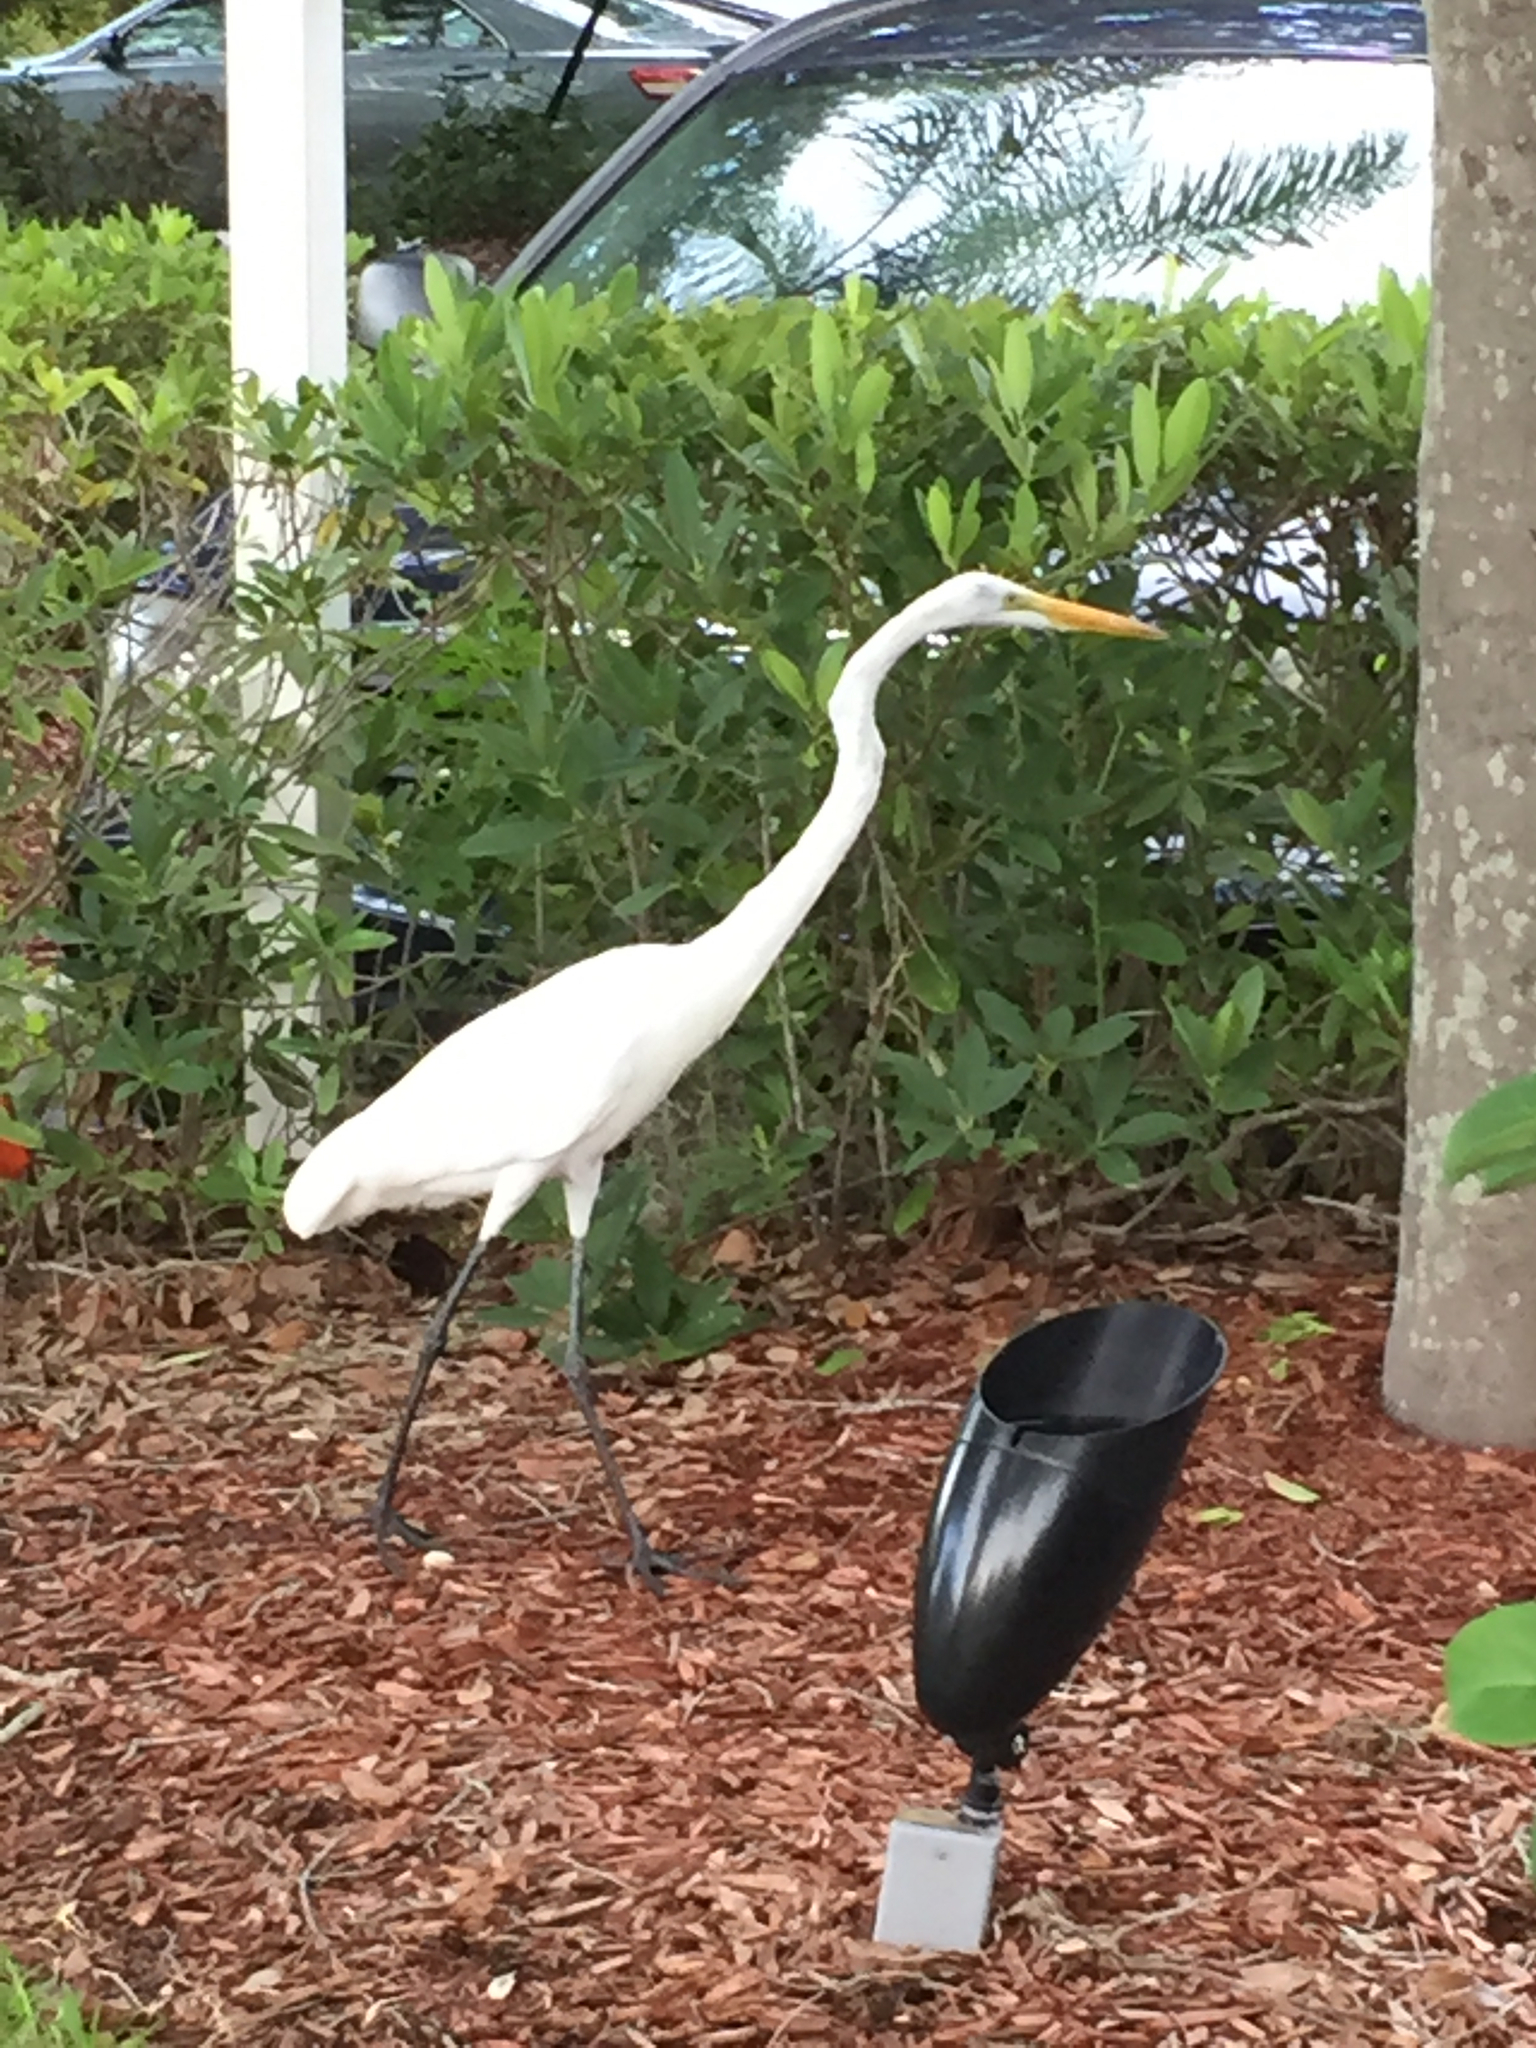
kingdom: Animalia
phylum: Chordata
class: Aves
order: Pelecaniformes
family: Ardeidae
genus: Ardea
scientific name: Ardea alba
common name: Great egret
